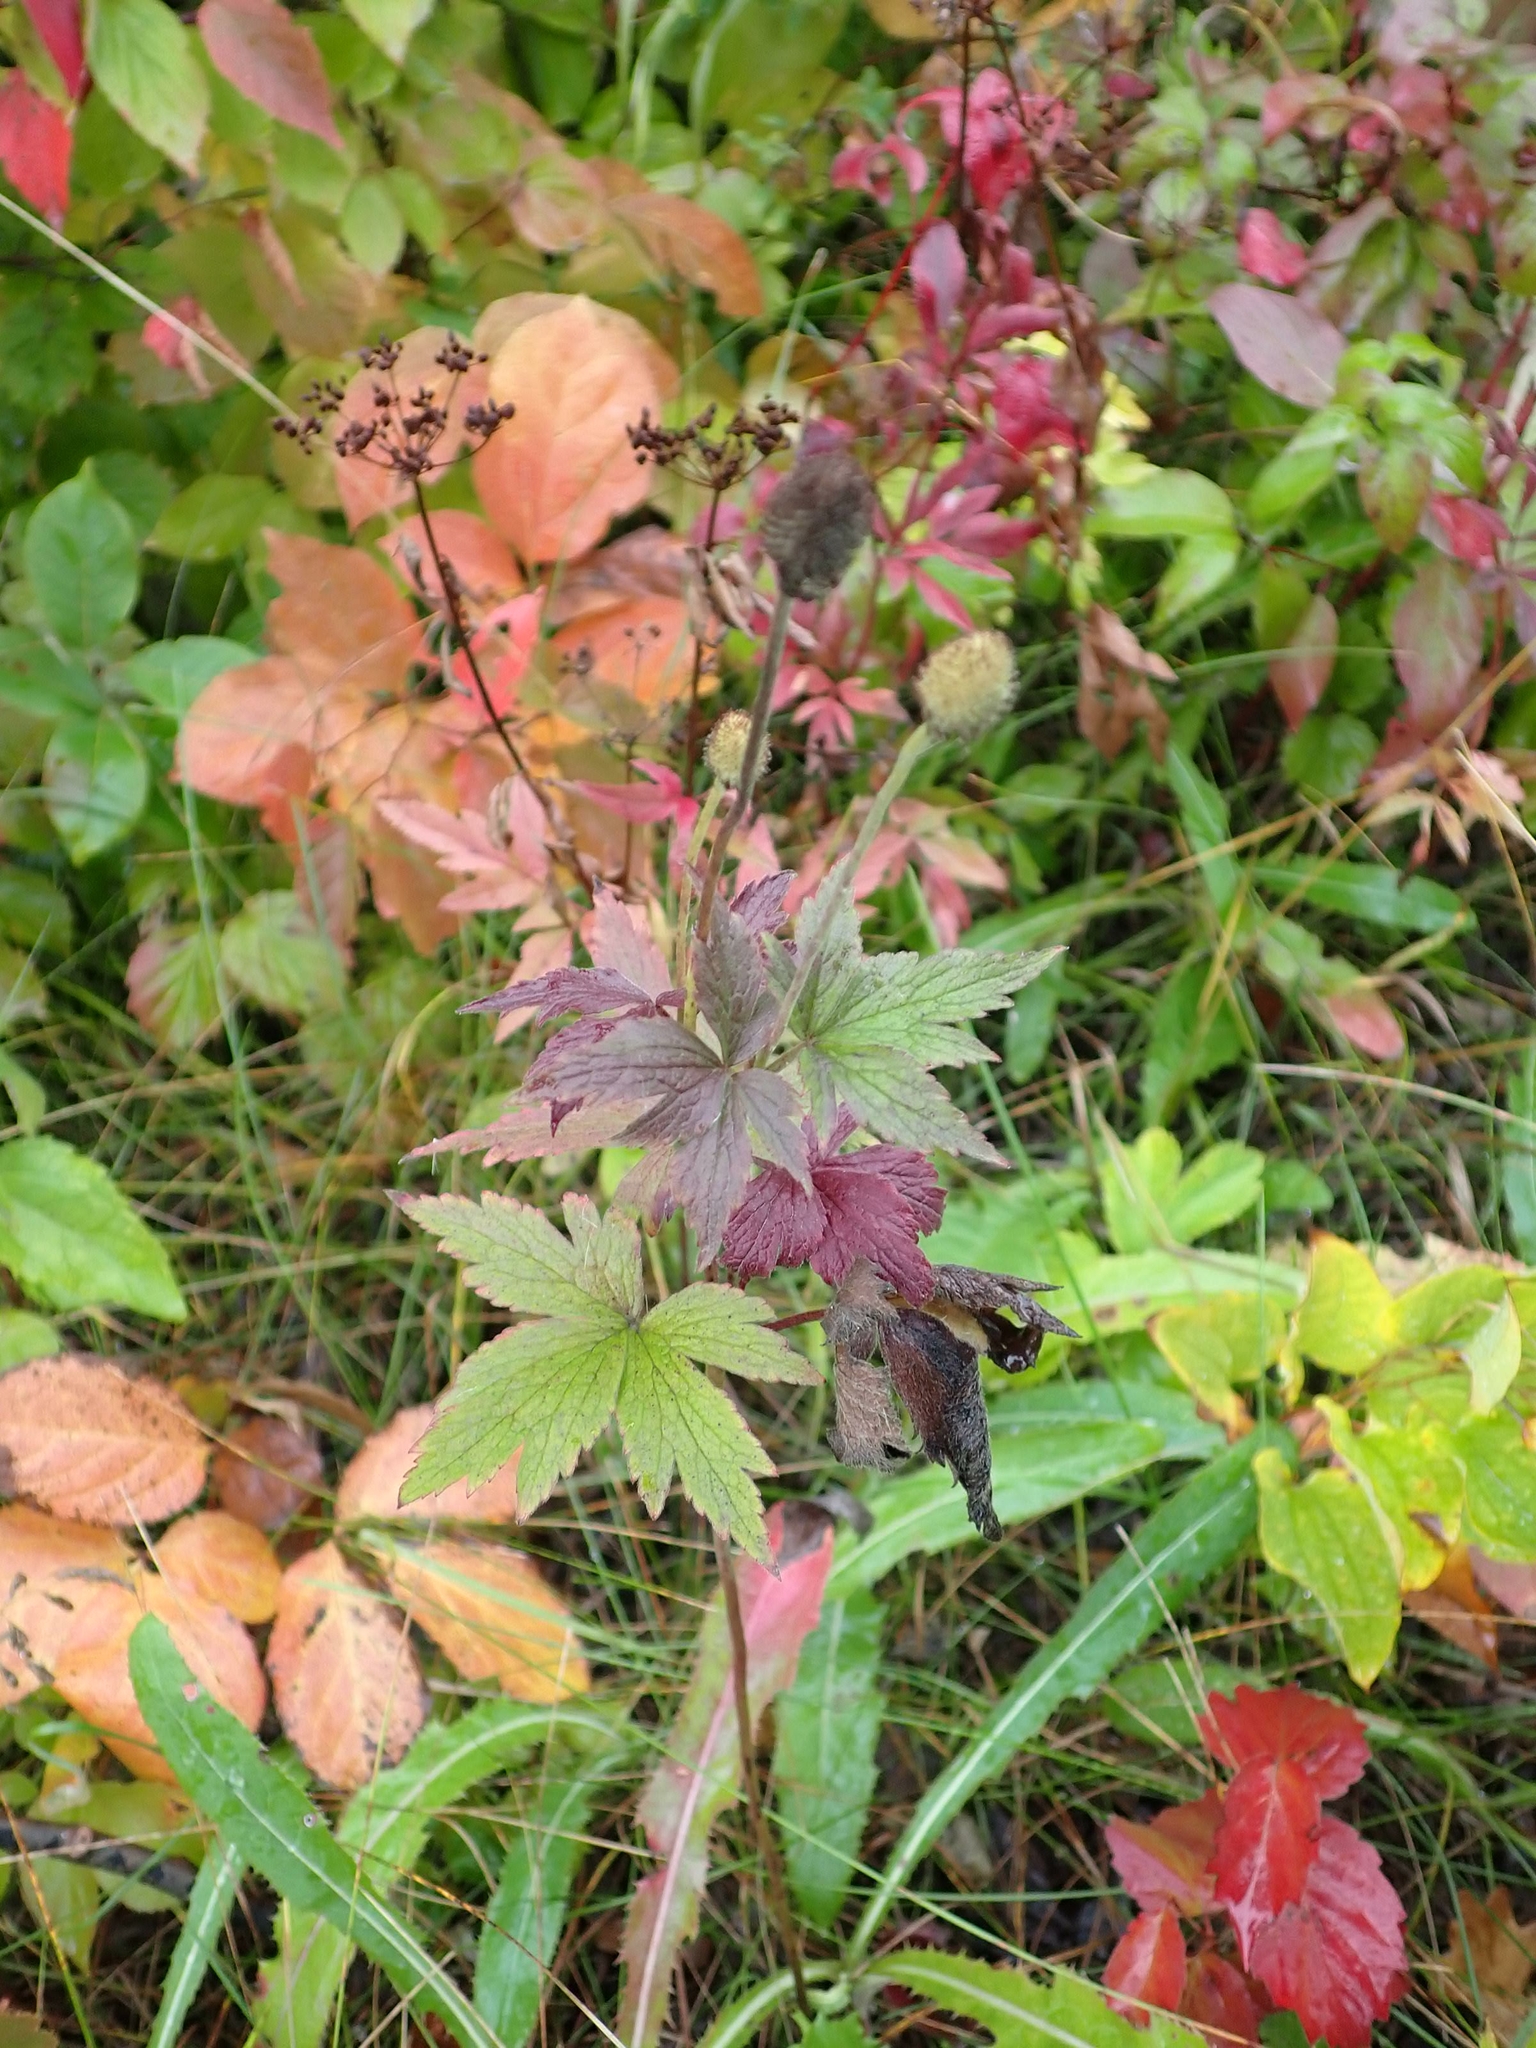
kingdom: Plantae
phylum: Tracheophyta
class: Magnoliopsida
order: Ranunculales
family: Ranunculaceae
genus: Anemone
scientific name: Anemone virginiana
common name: Tall anemone
